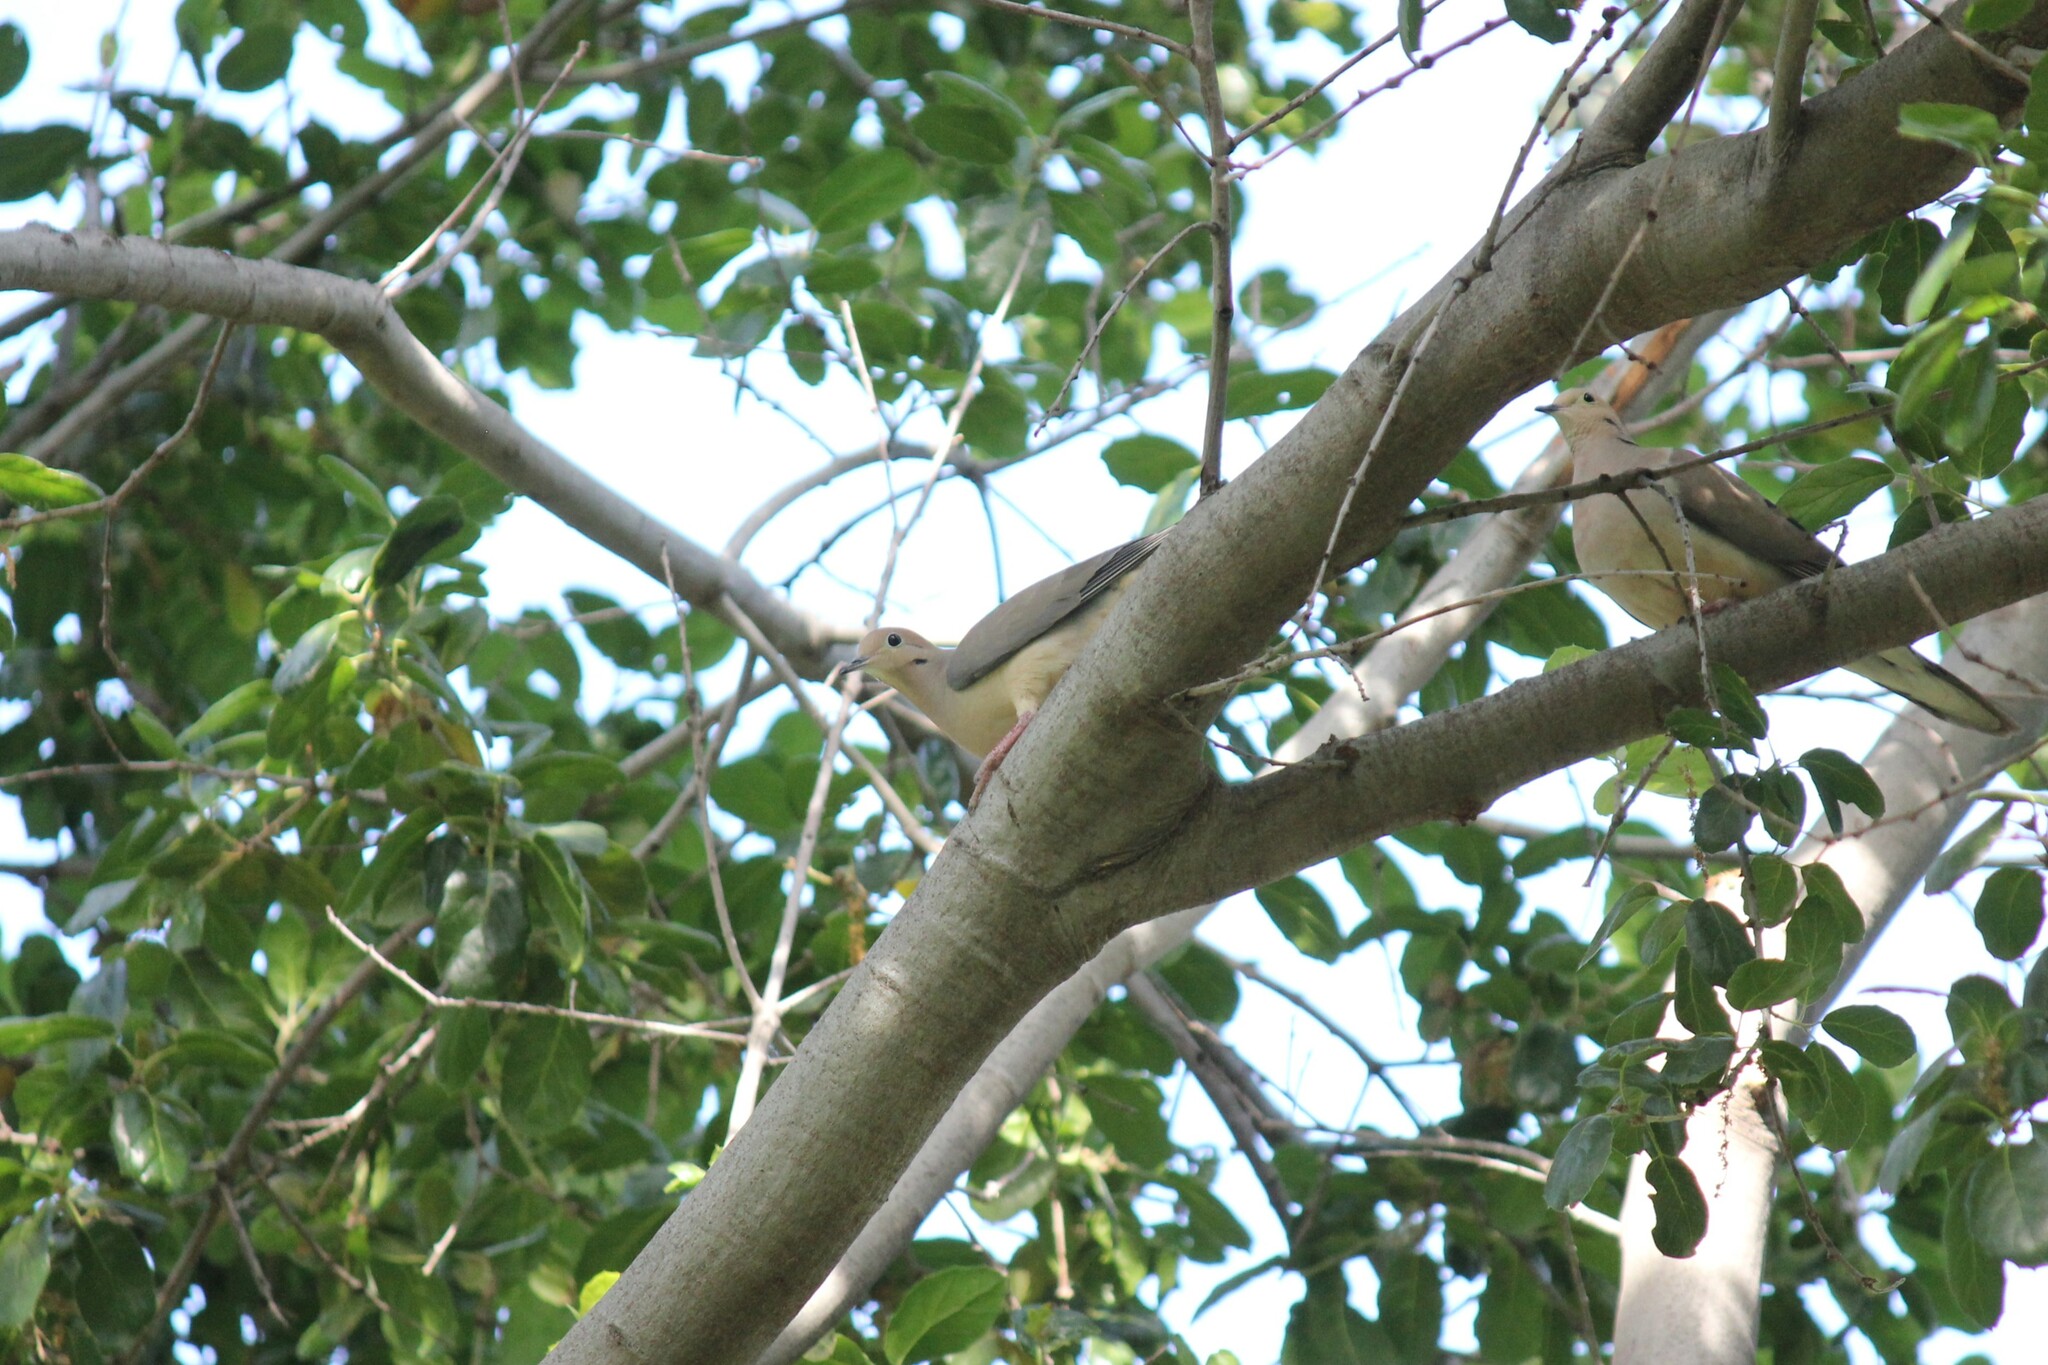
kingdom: Animalia
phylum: Chordata
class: Aves
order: Columbiformes
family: Columbidae
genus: Zenaida
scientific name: Zenaida macroura
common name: Mourning dove
